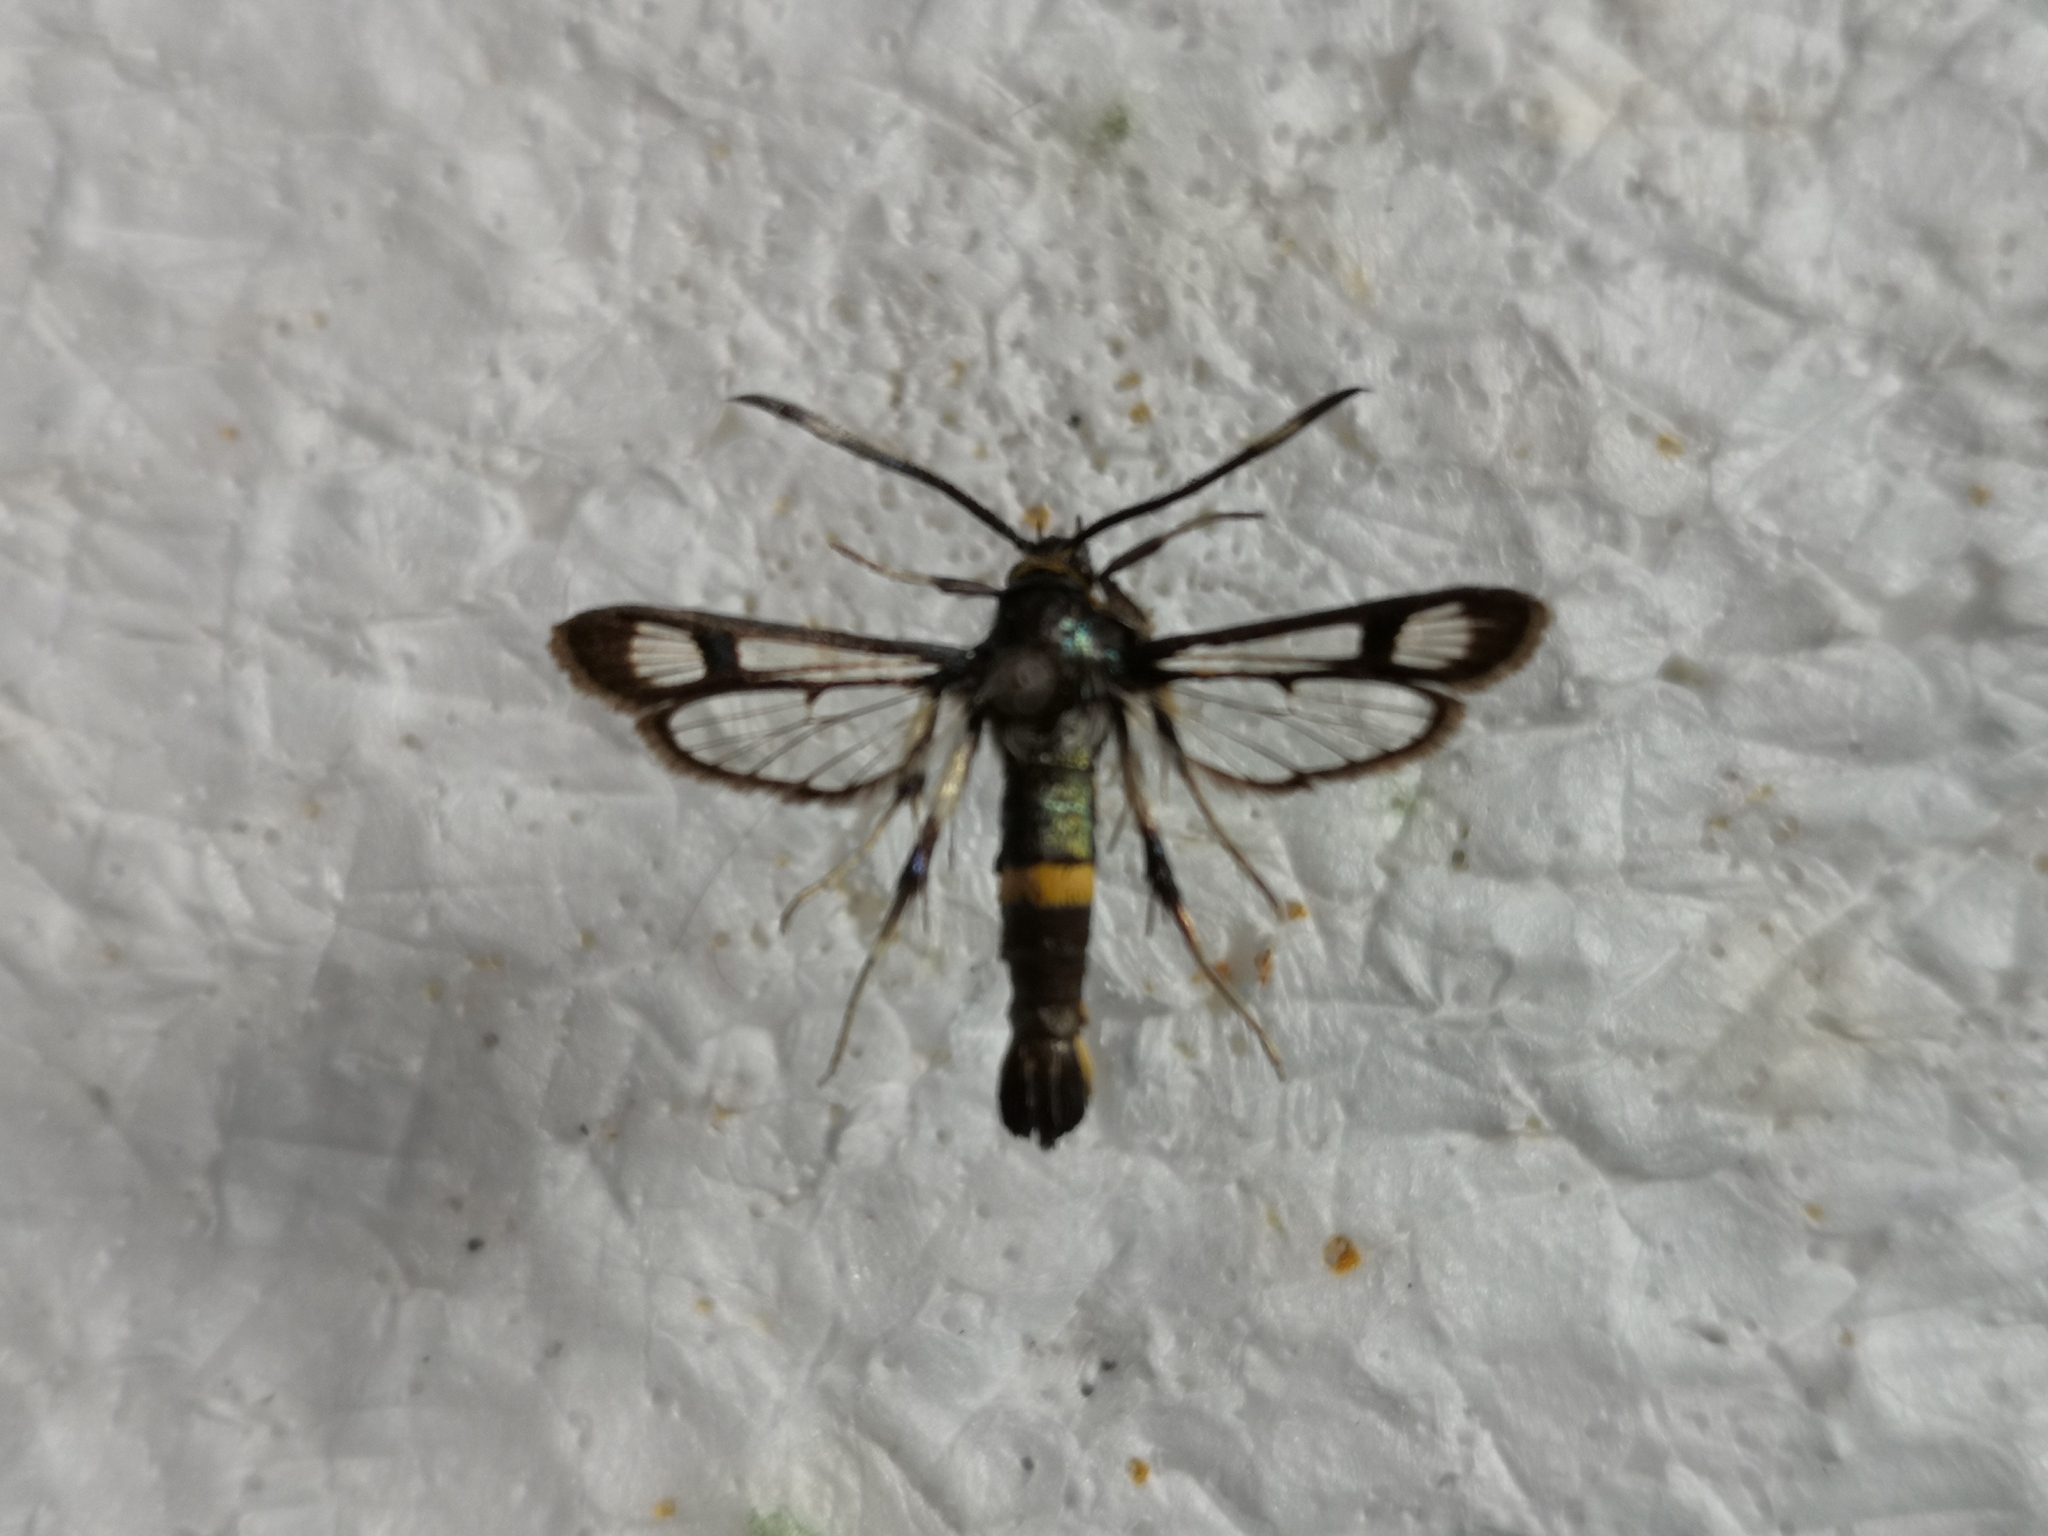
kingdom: Animalia
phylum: Arthropoda
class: Insecta
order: Lepidoptera
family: Sesiidae
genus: Pyropteron
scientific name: Pyropteron pipiziformis
